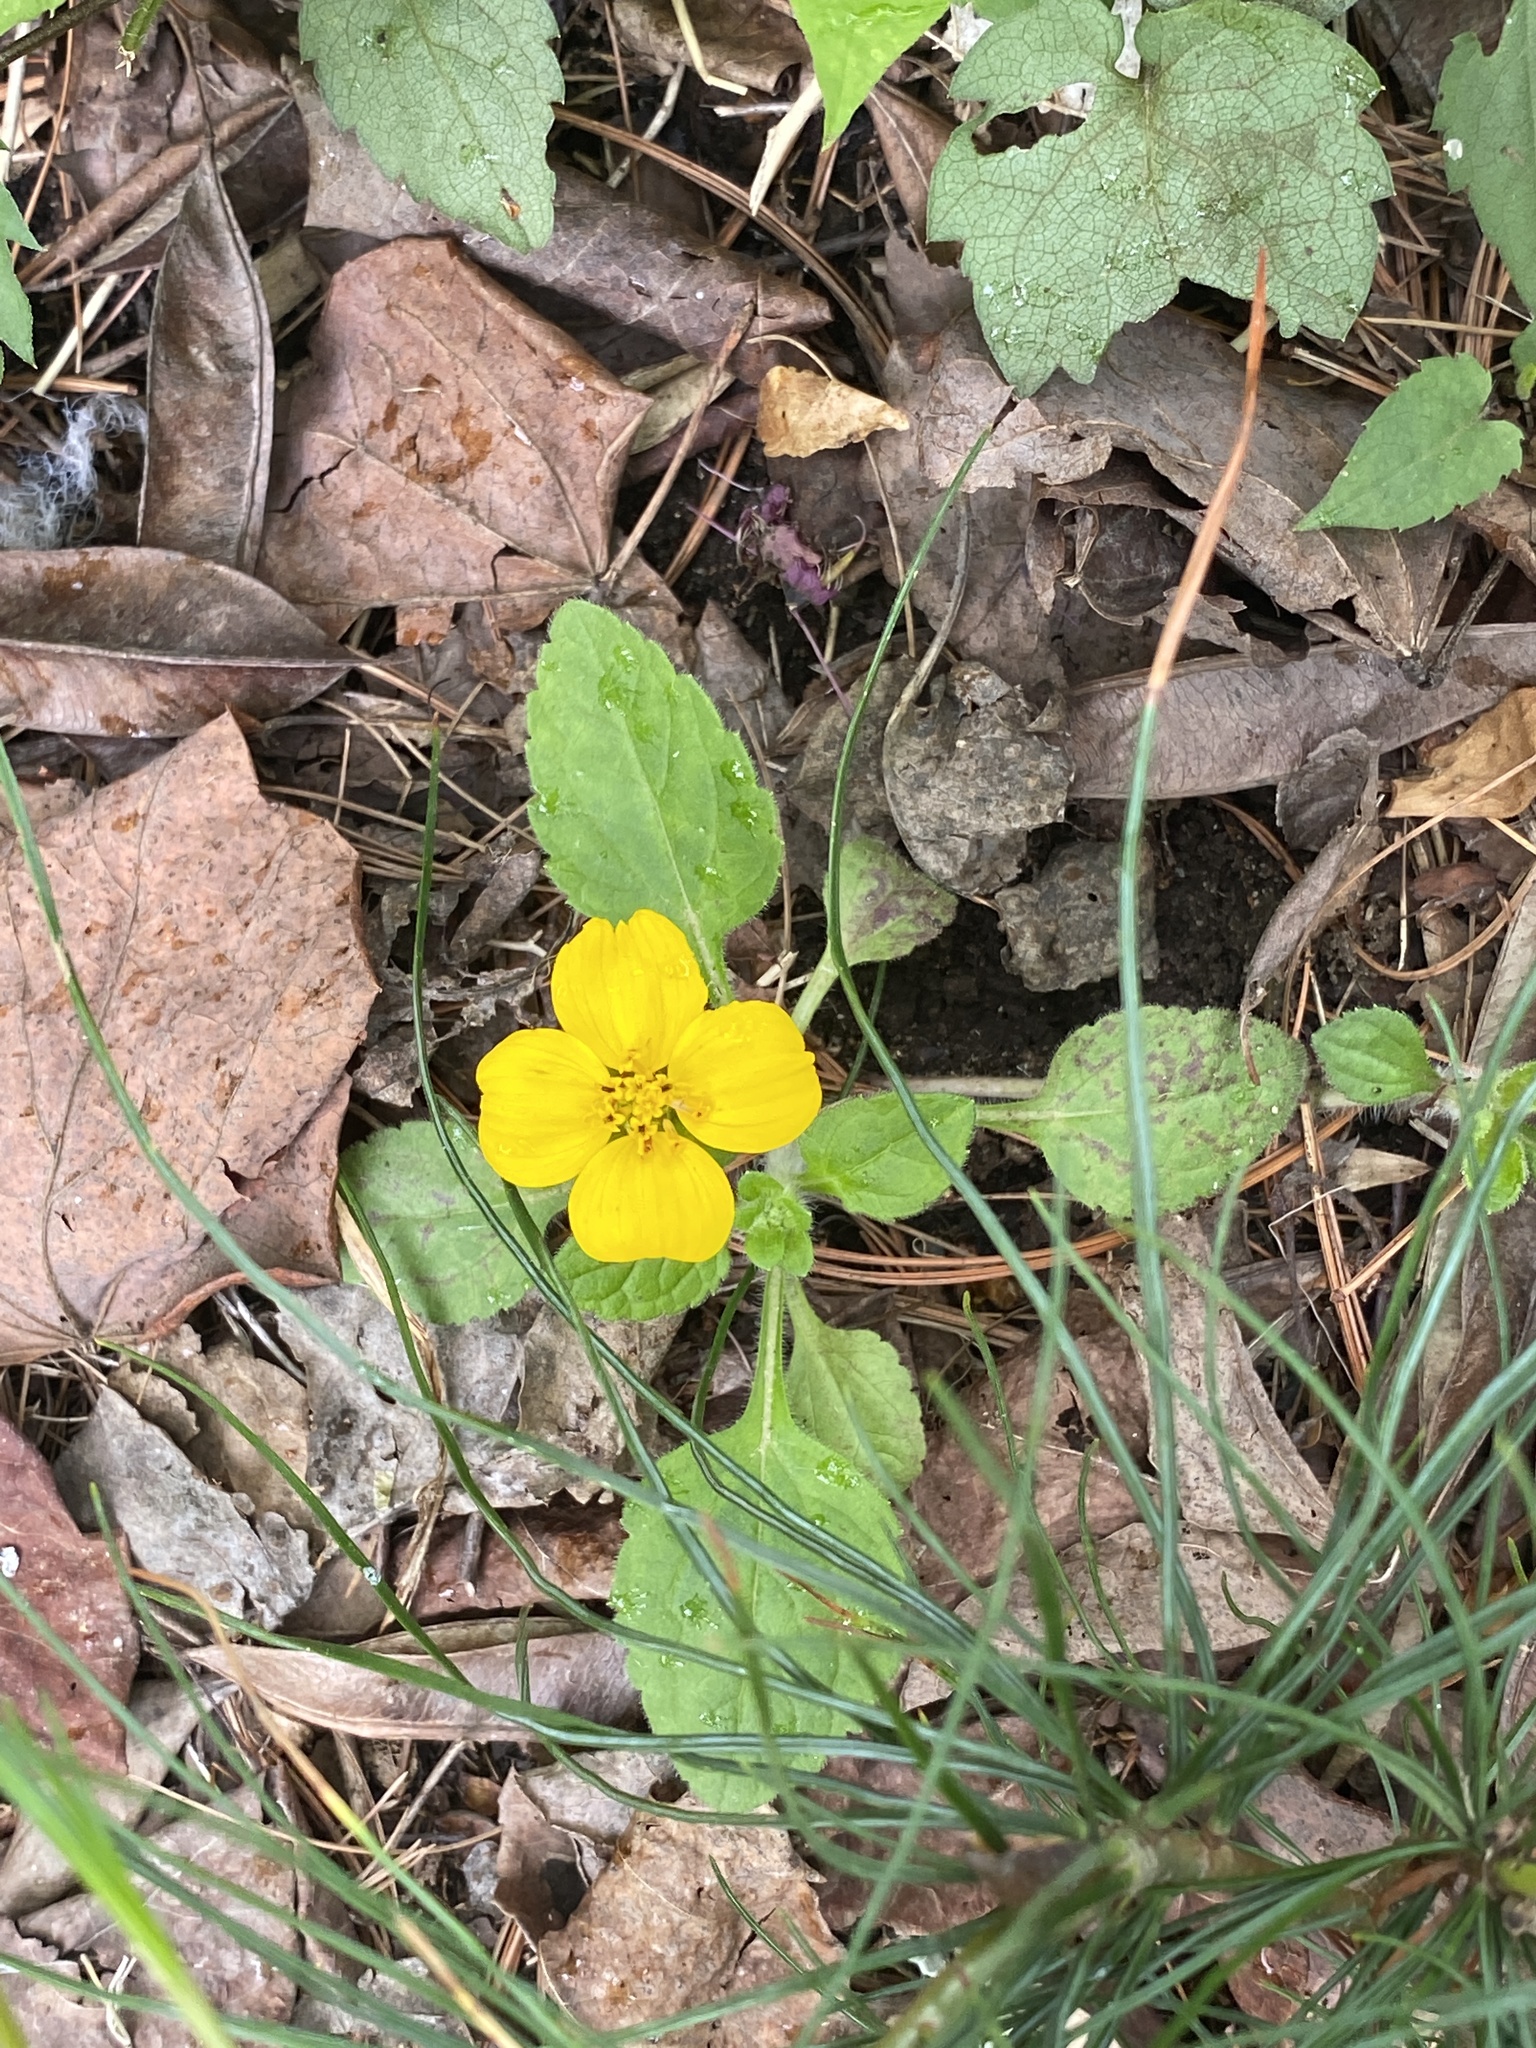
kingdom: Plantae
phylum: Tracheophyta
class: Magnoliopsida
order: Asterales
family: Asteraceae
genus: Chrysogonum
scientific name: Chrysogonum virginianum
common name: Golden-knee
